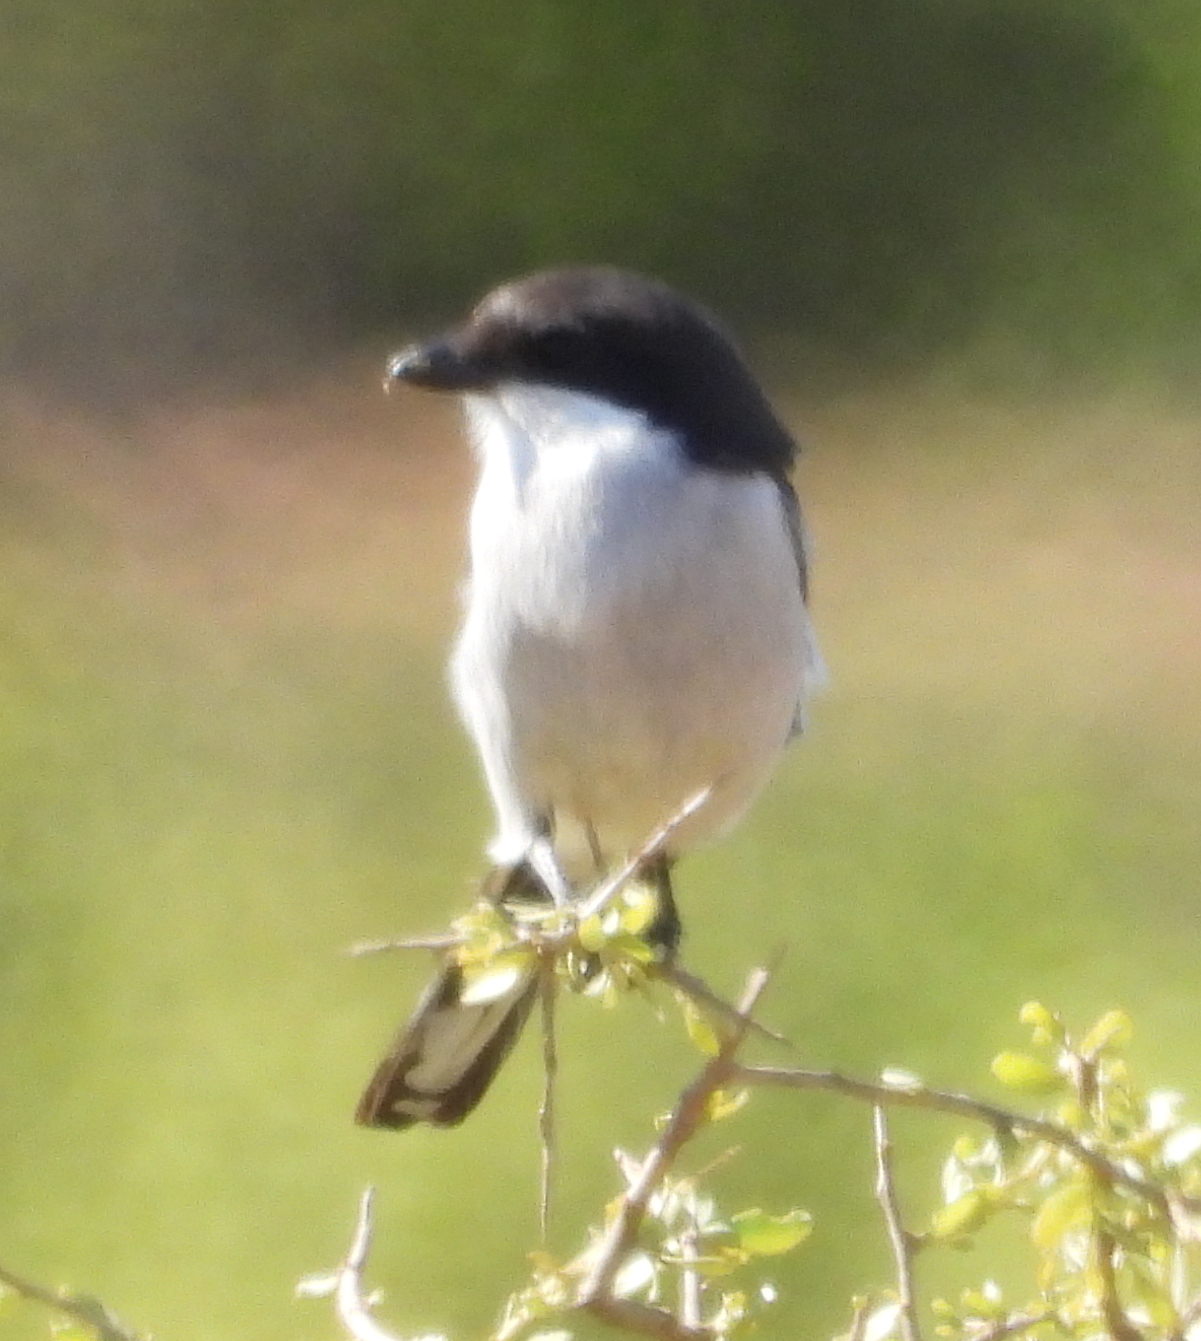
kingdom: Animalia
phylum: Chordata
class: Aves
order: Passeriformes
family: Laniidae
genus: Lanius
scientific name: Lanius collaris
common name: Southern fiscal
